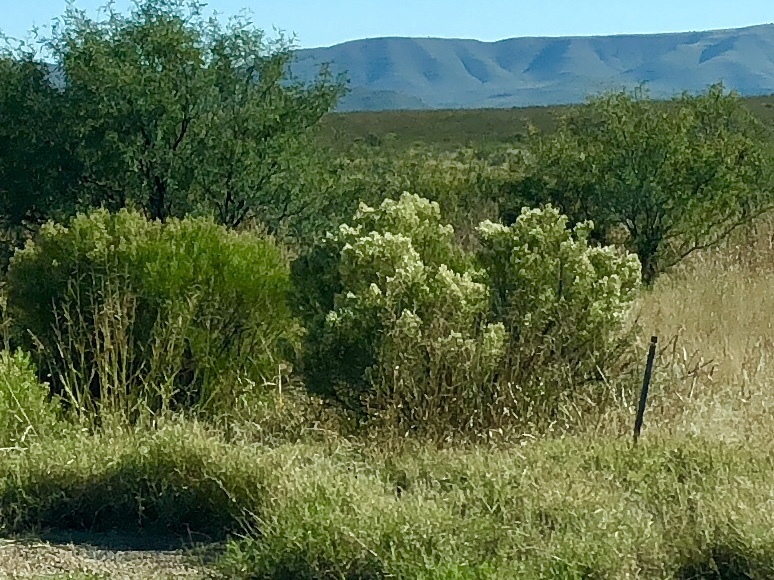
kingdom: Plantae
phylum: Tracheophyta
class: Magnoliopsida
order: Asterales
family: Asteraceae
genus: Baccharis
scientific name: Baccharis sarothroides
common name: Desert-broom
